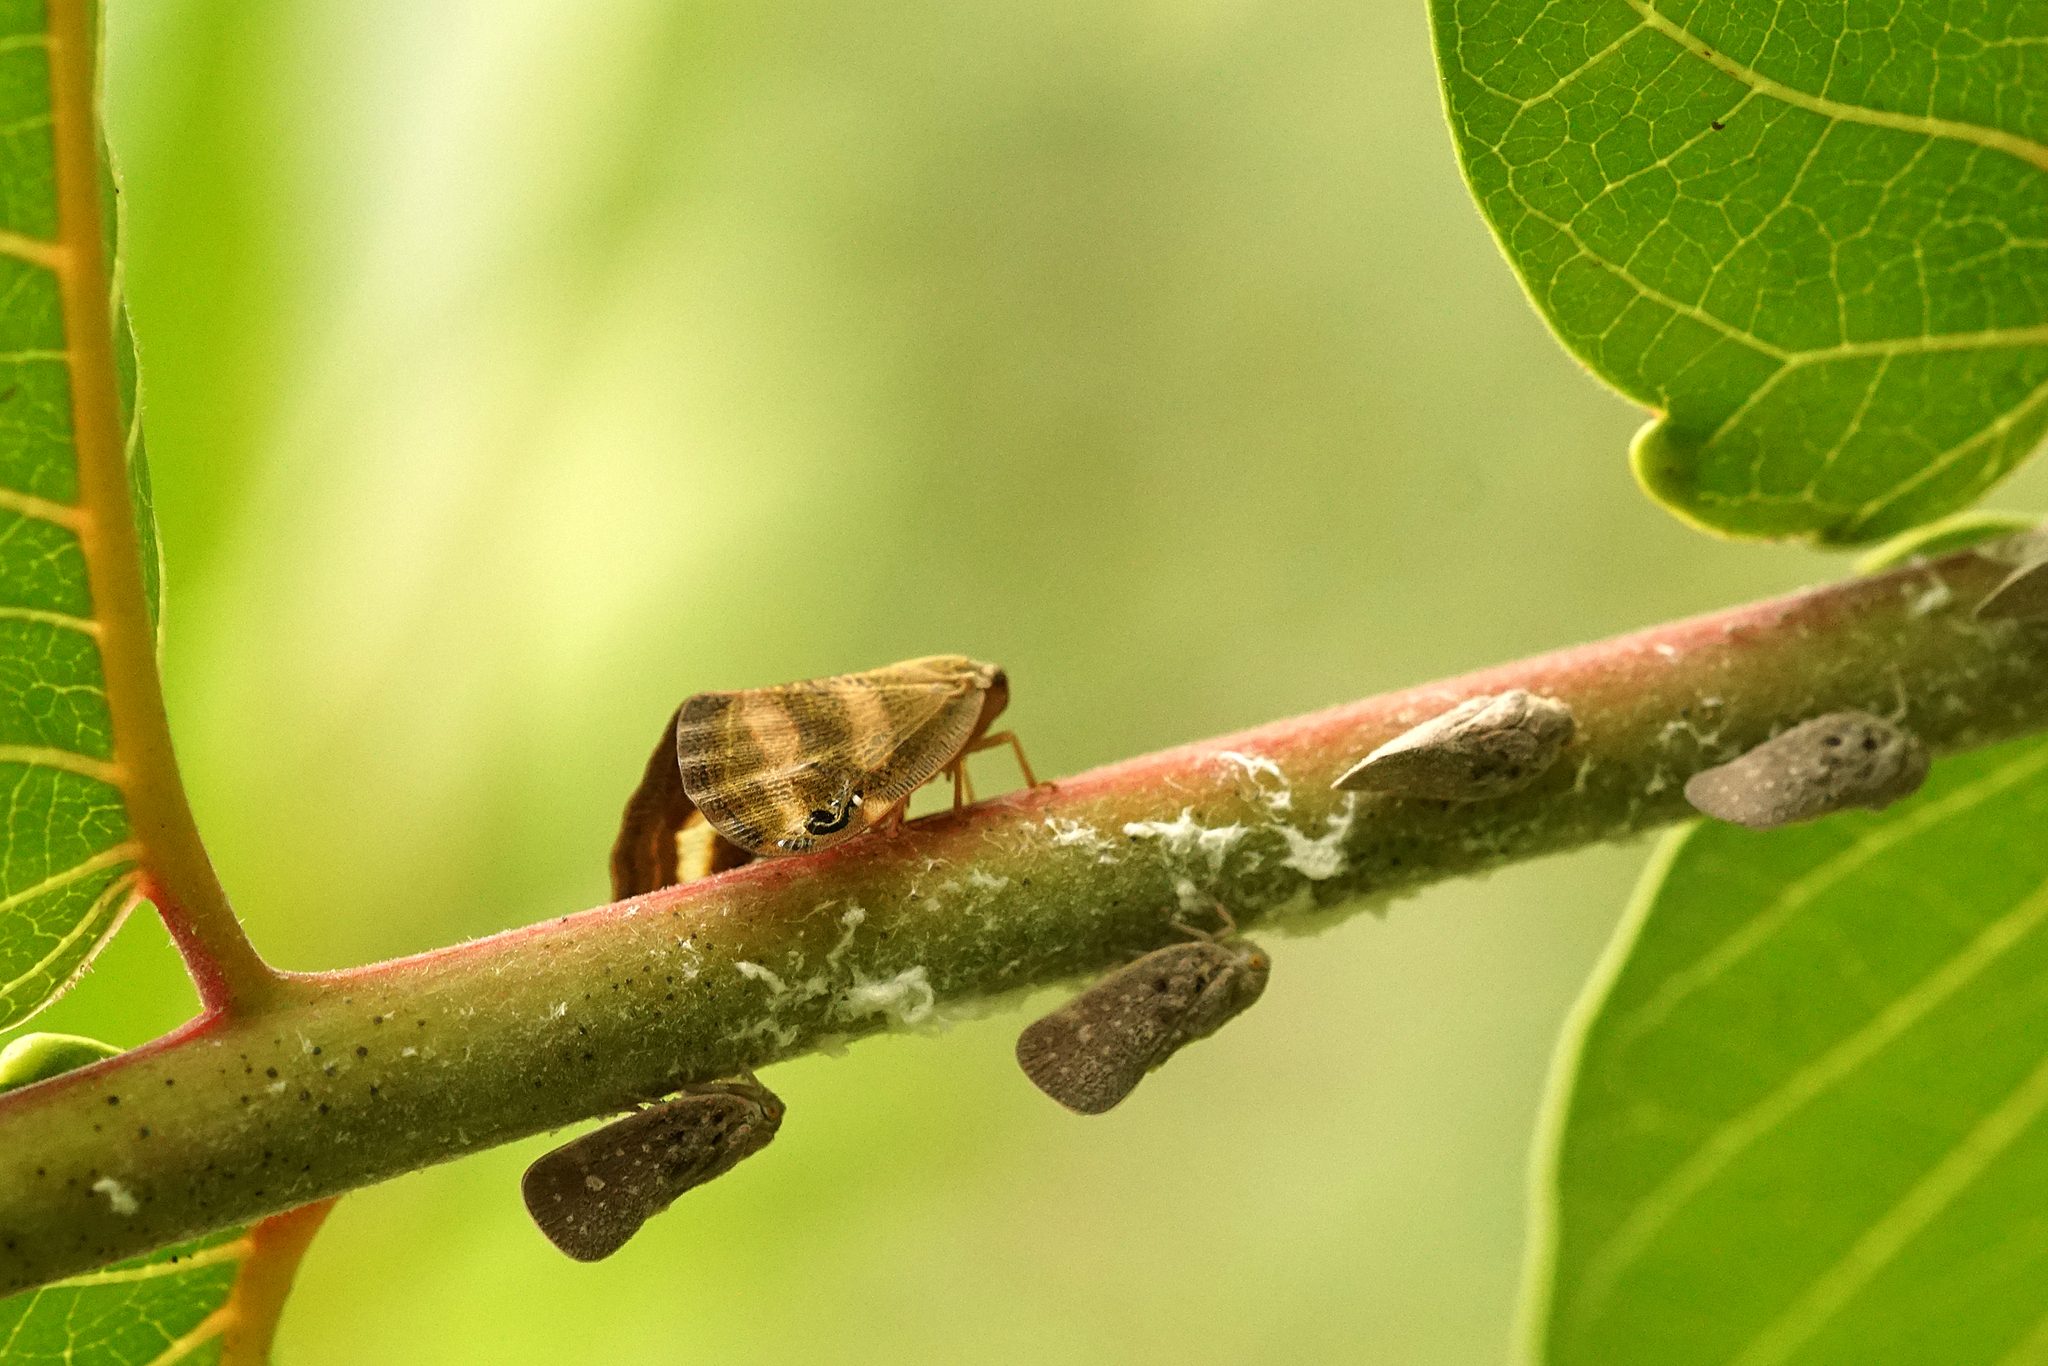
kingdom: Animalia
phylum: Arthropoda
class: Insecta
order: Hemiptera
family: Ricaniidae
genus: Orosanga
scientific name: Orosanga japonica
